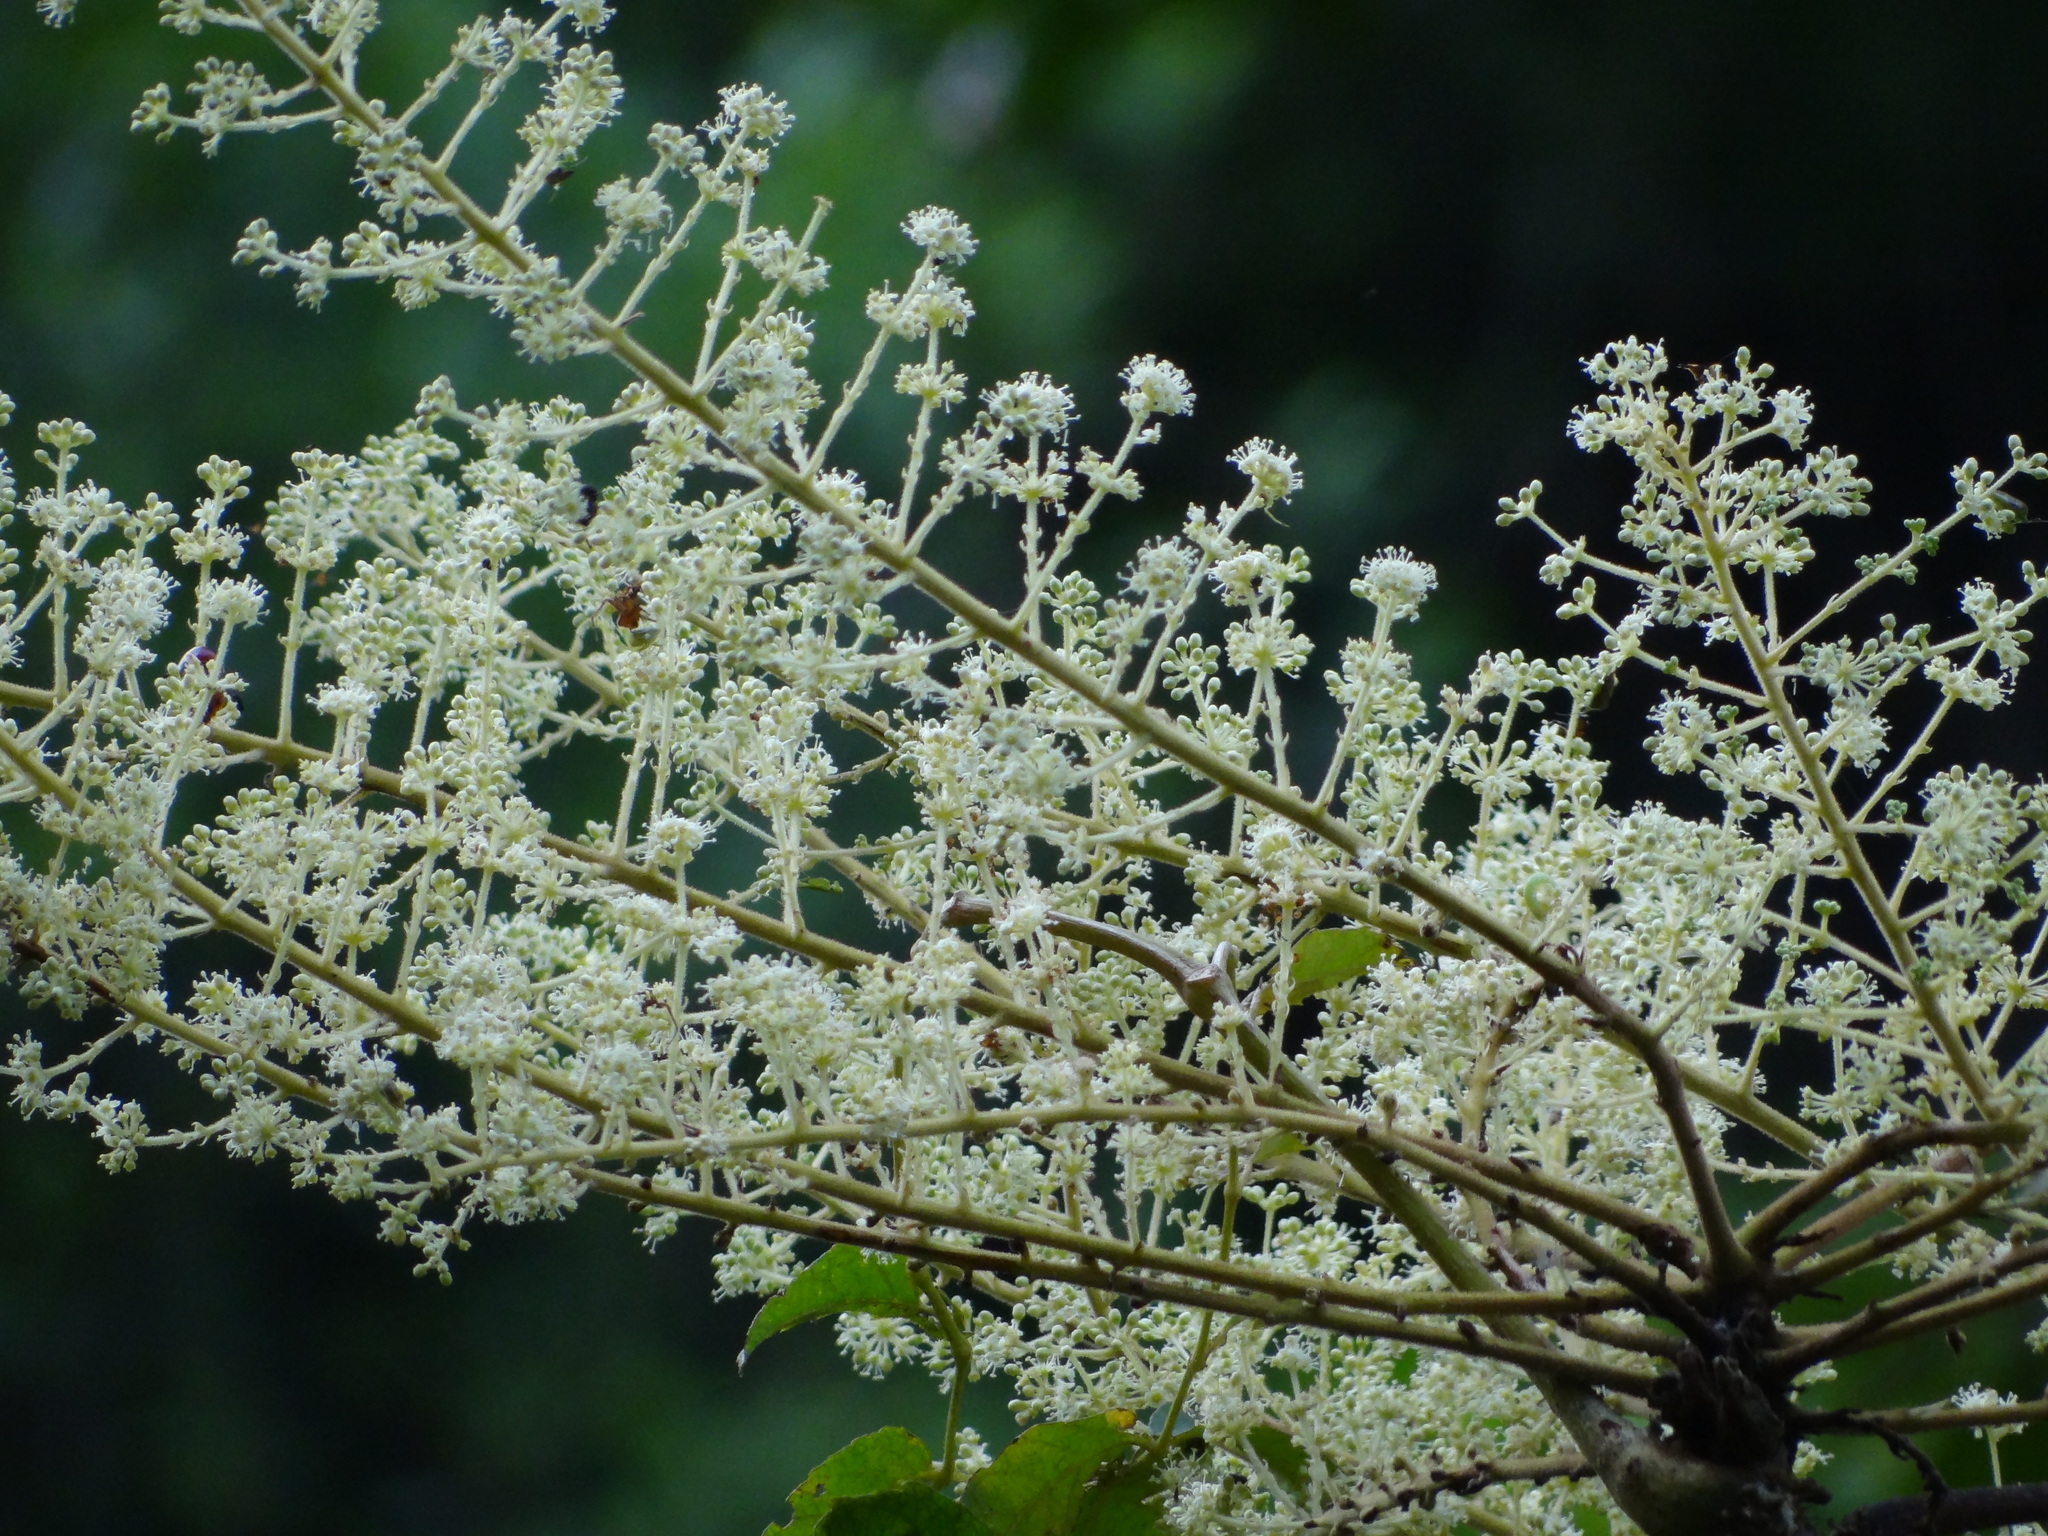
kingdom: Plantae
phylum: Tracheophyta
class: Magnoliopsida
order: Apiales
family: Araliaceae
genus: Aralia
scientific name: Aralia decaisneana
